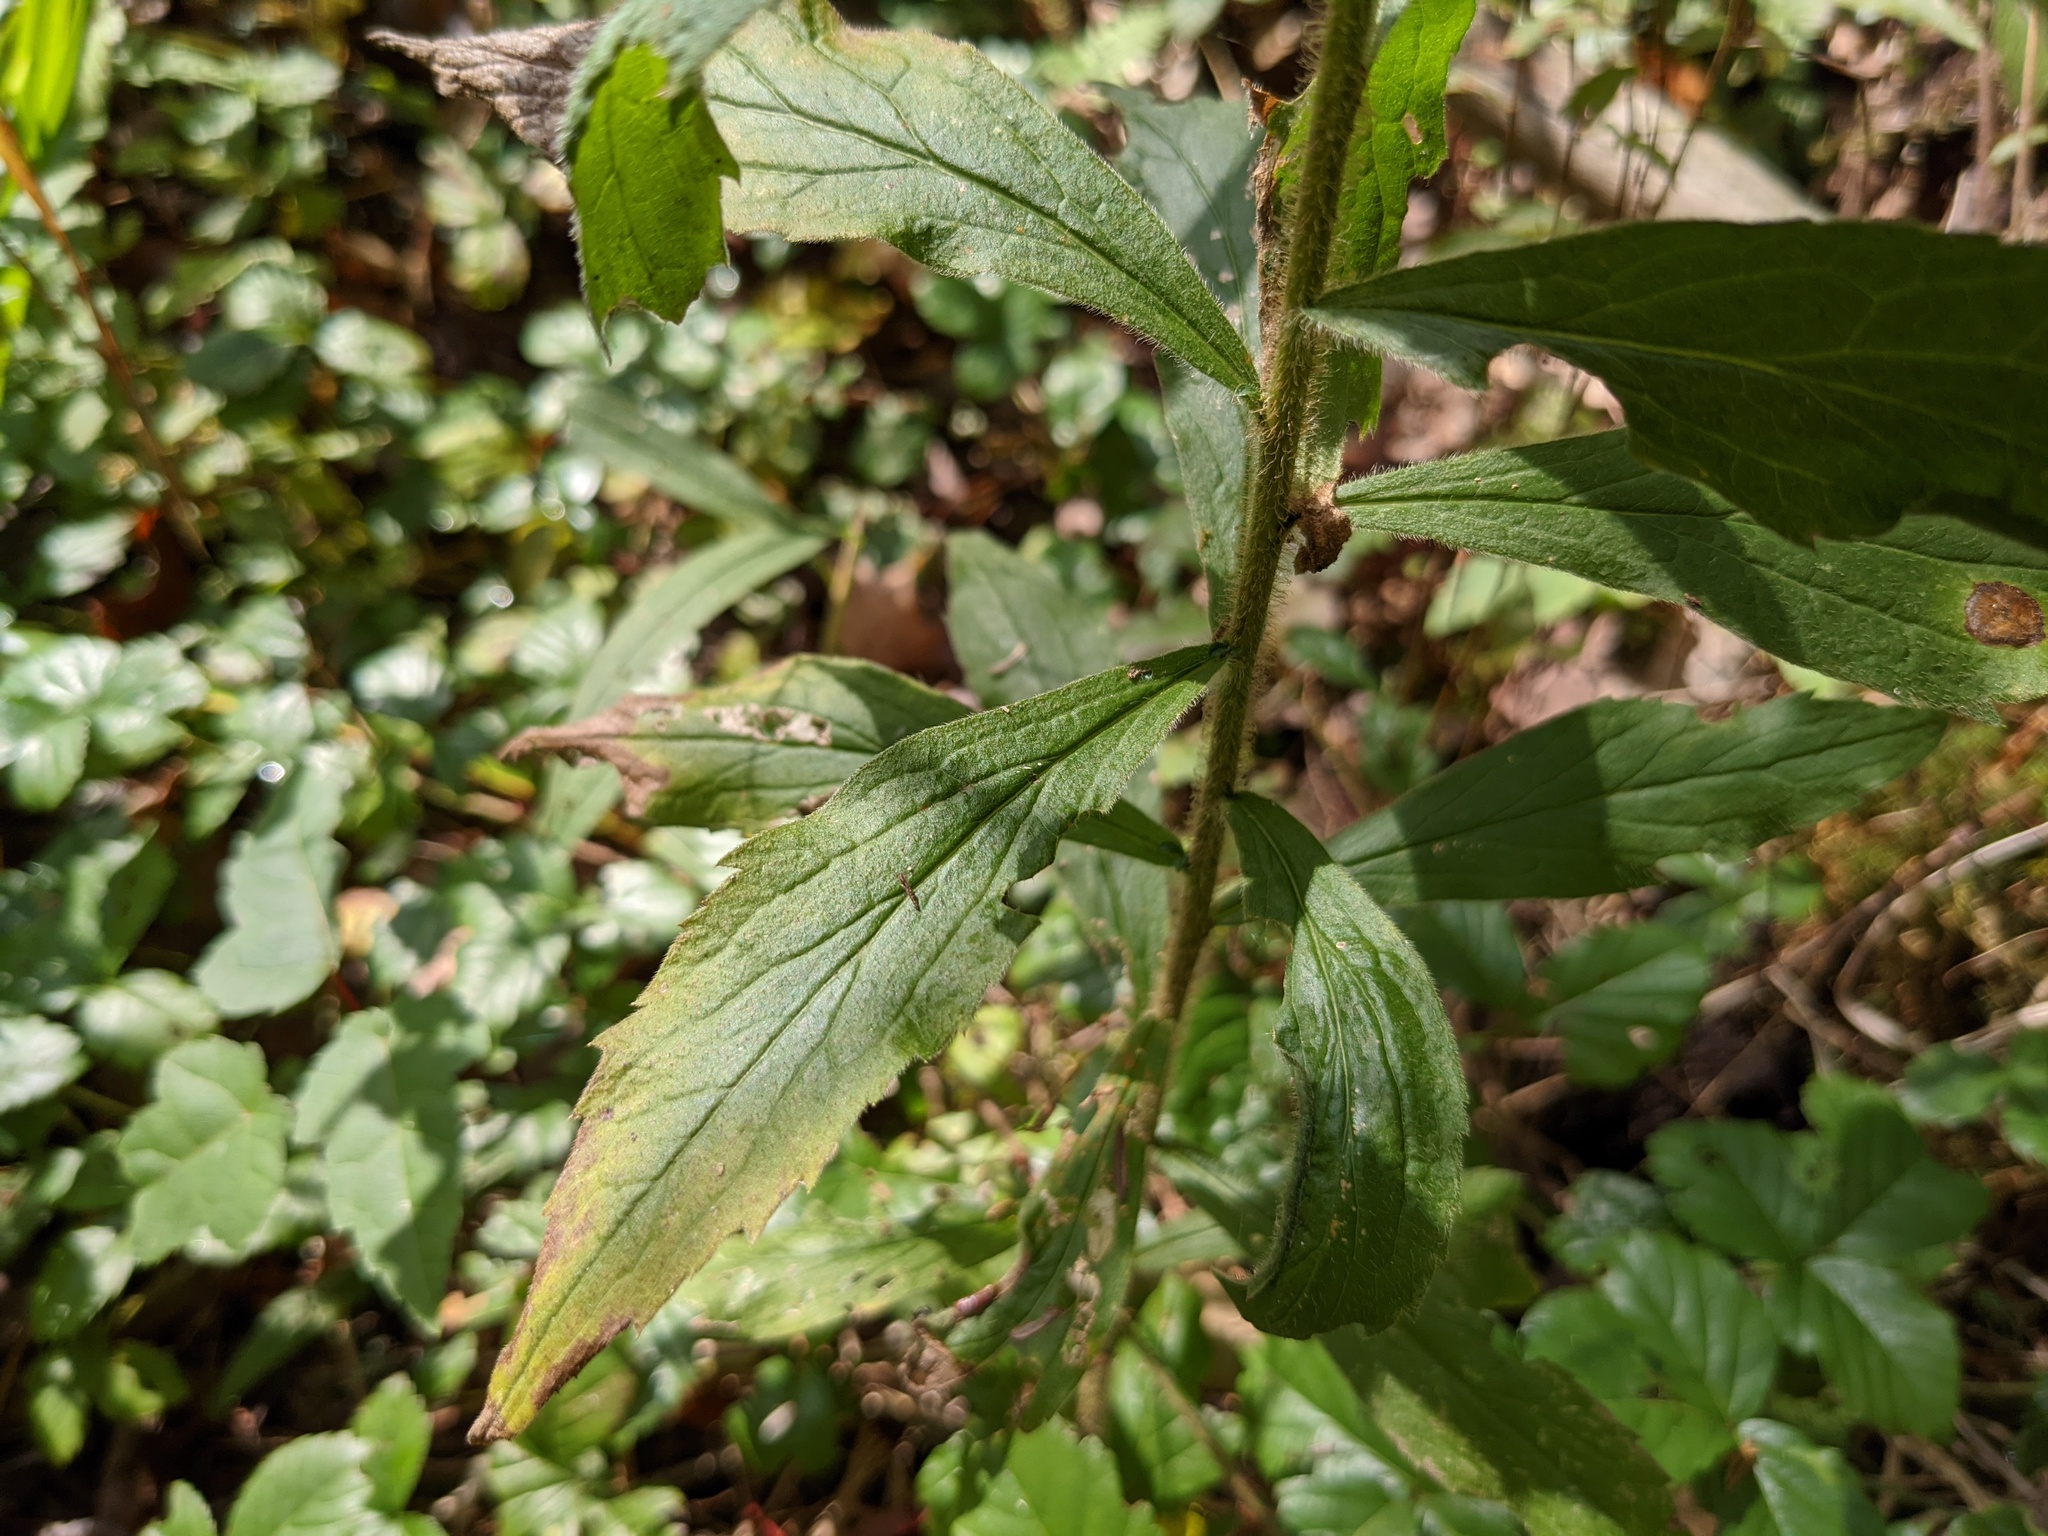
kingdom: Plantae
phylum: Tracheophyta
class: Magnoliopsida
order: Asterales
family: Asteraceae
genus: Solidago
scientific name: Solidago rugosa
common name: Rough-stemmed goldenrod
